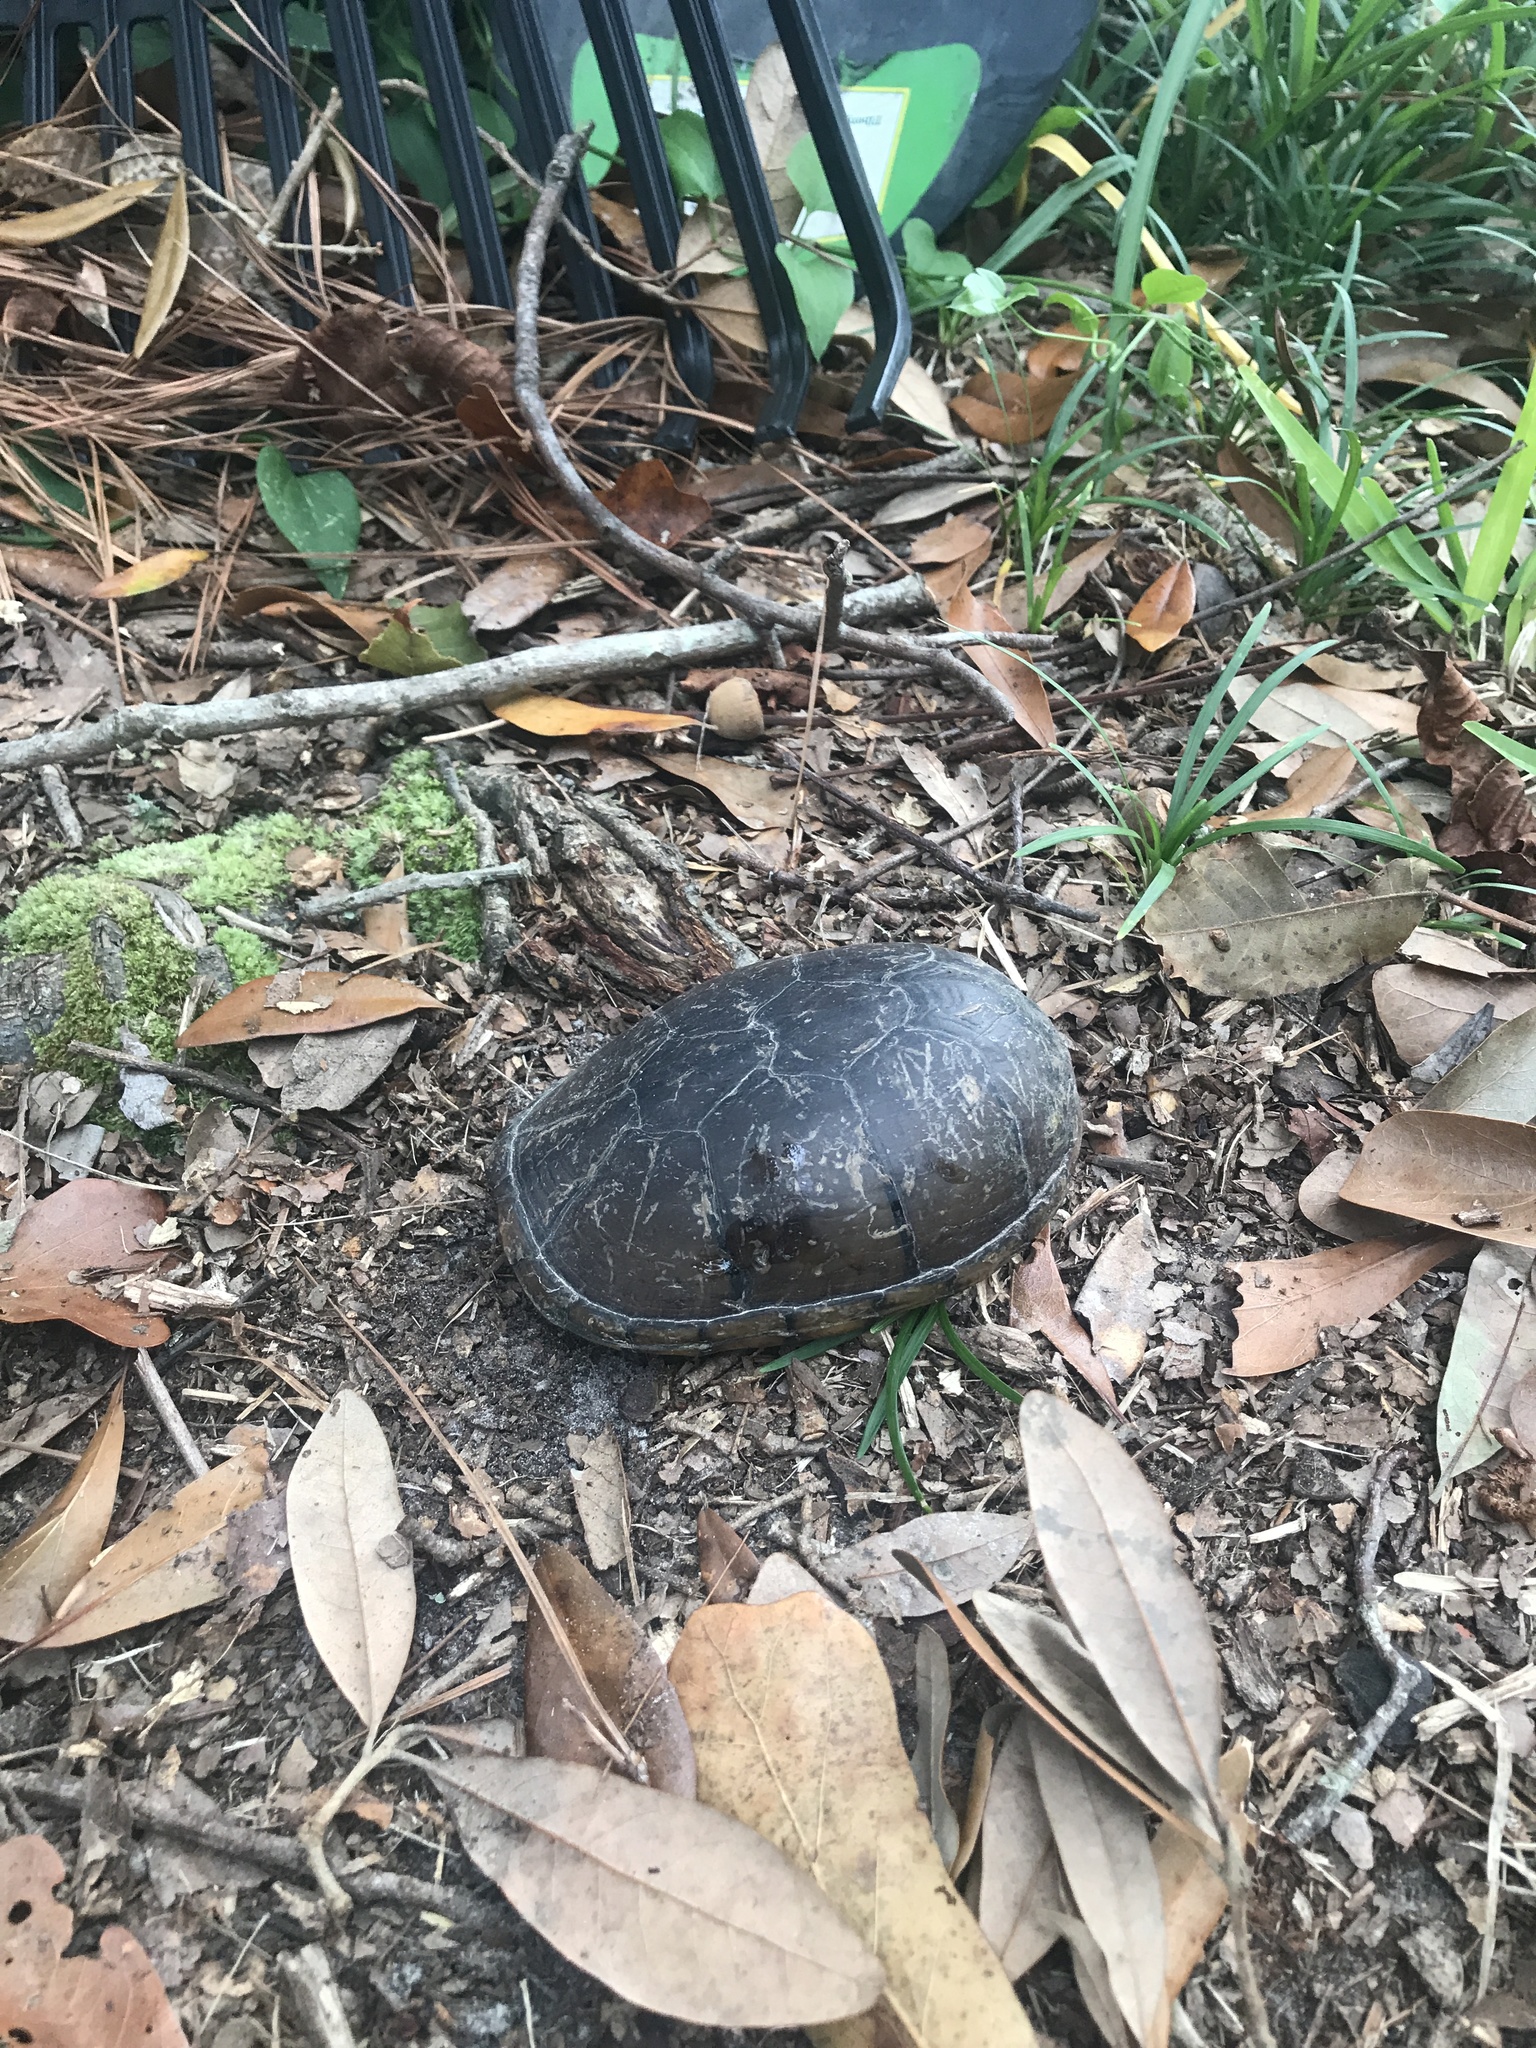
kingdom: Animalia
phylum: Chordata
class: Testudines
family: Kinosternidae
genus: Kinosternon
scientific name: Kinosternon subrubrum
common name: Eastern mud turtle
